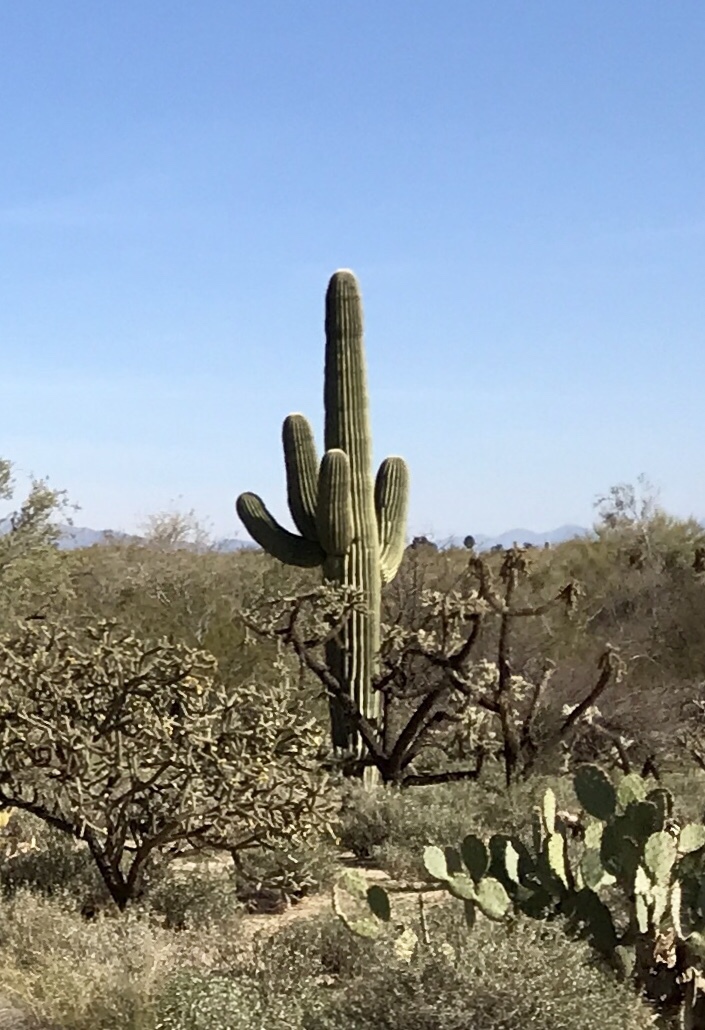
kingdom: Plantae
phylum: Tracheophyta
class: Magnoliopsida
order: Caryophyllales
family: Cactaceae
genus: Carnegiea
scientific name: Carnegiea gigantea
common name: Saguaro
